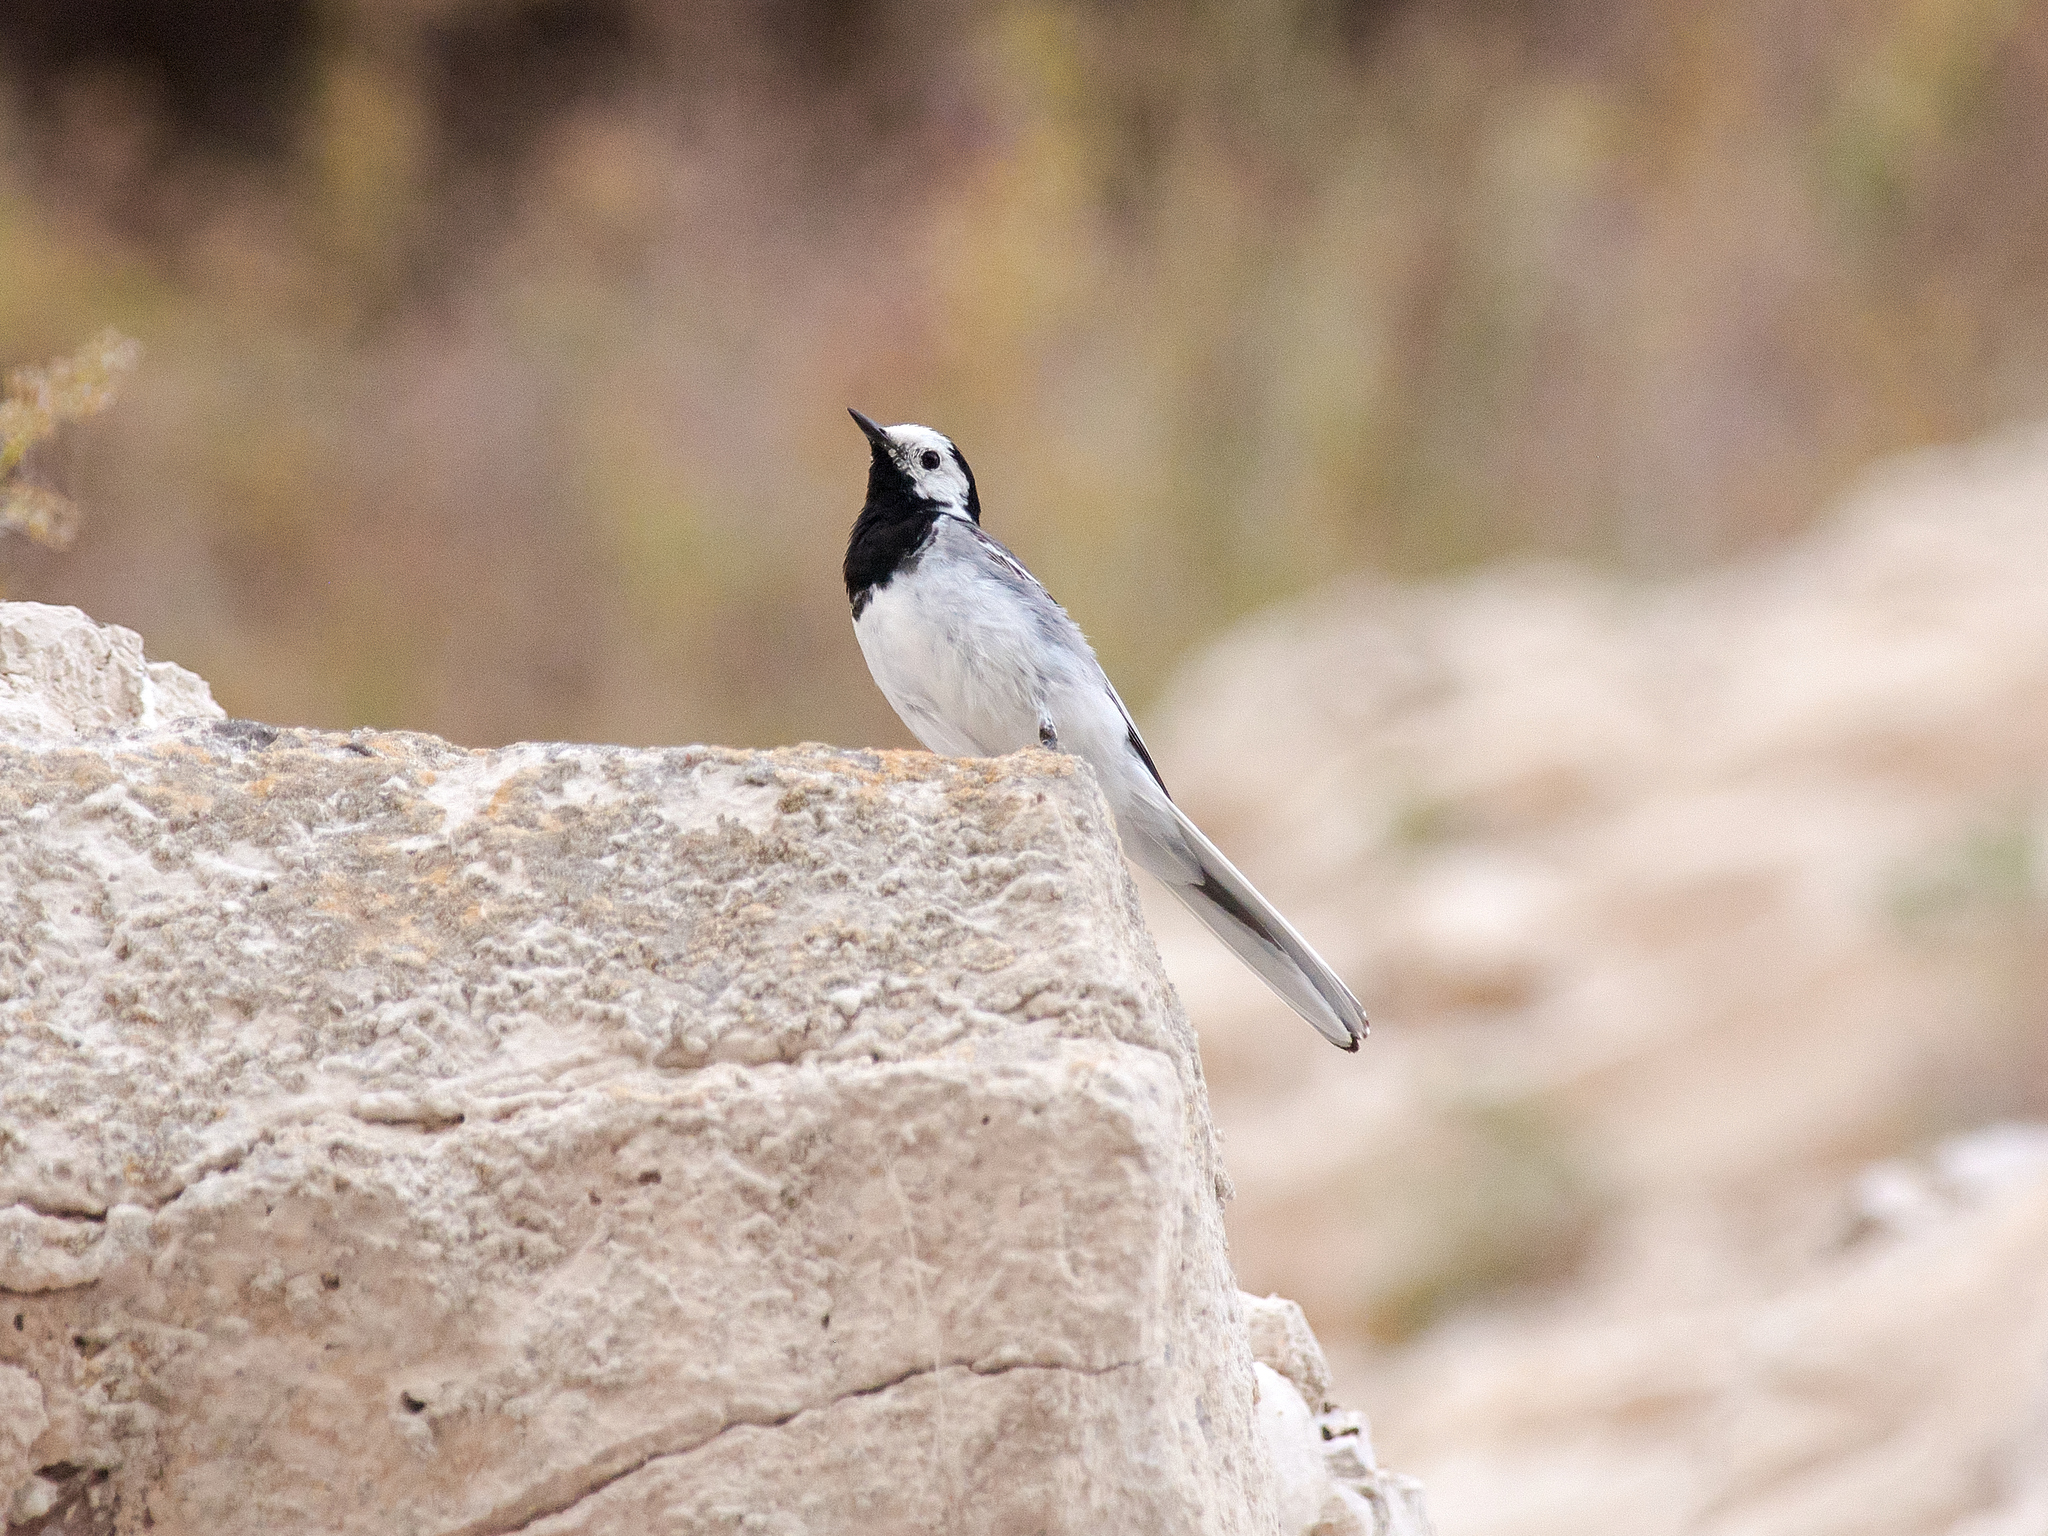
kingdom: Animalia
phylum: Chordata
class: Aves
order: Passeriformes
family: Motacillidae
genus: Motacilla
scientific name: Motacilla alba
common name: White wagtail
